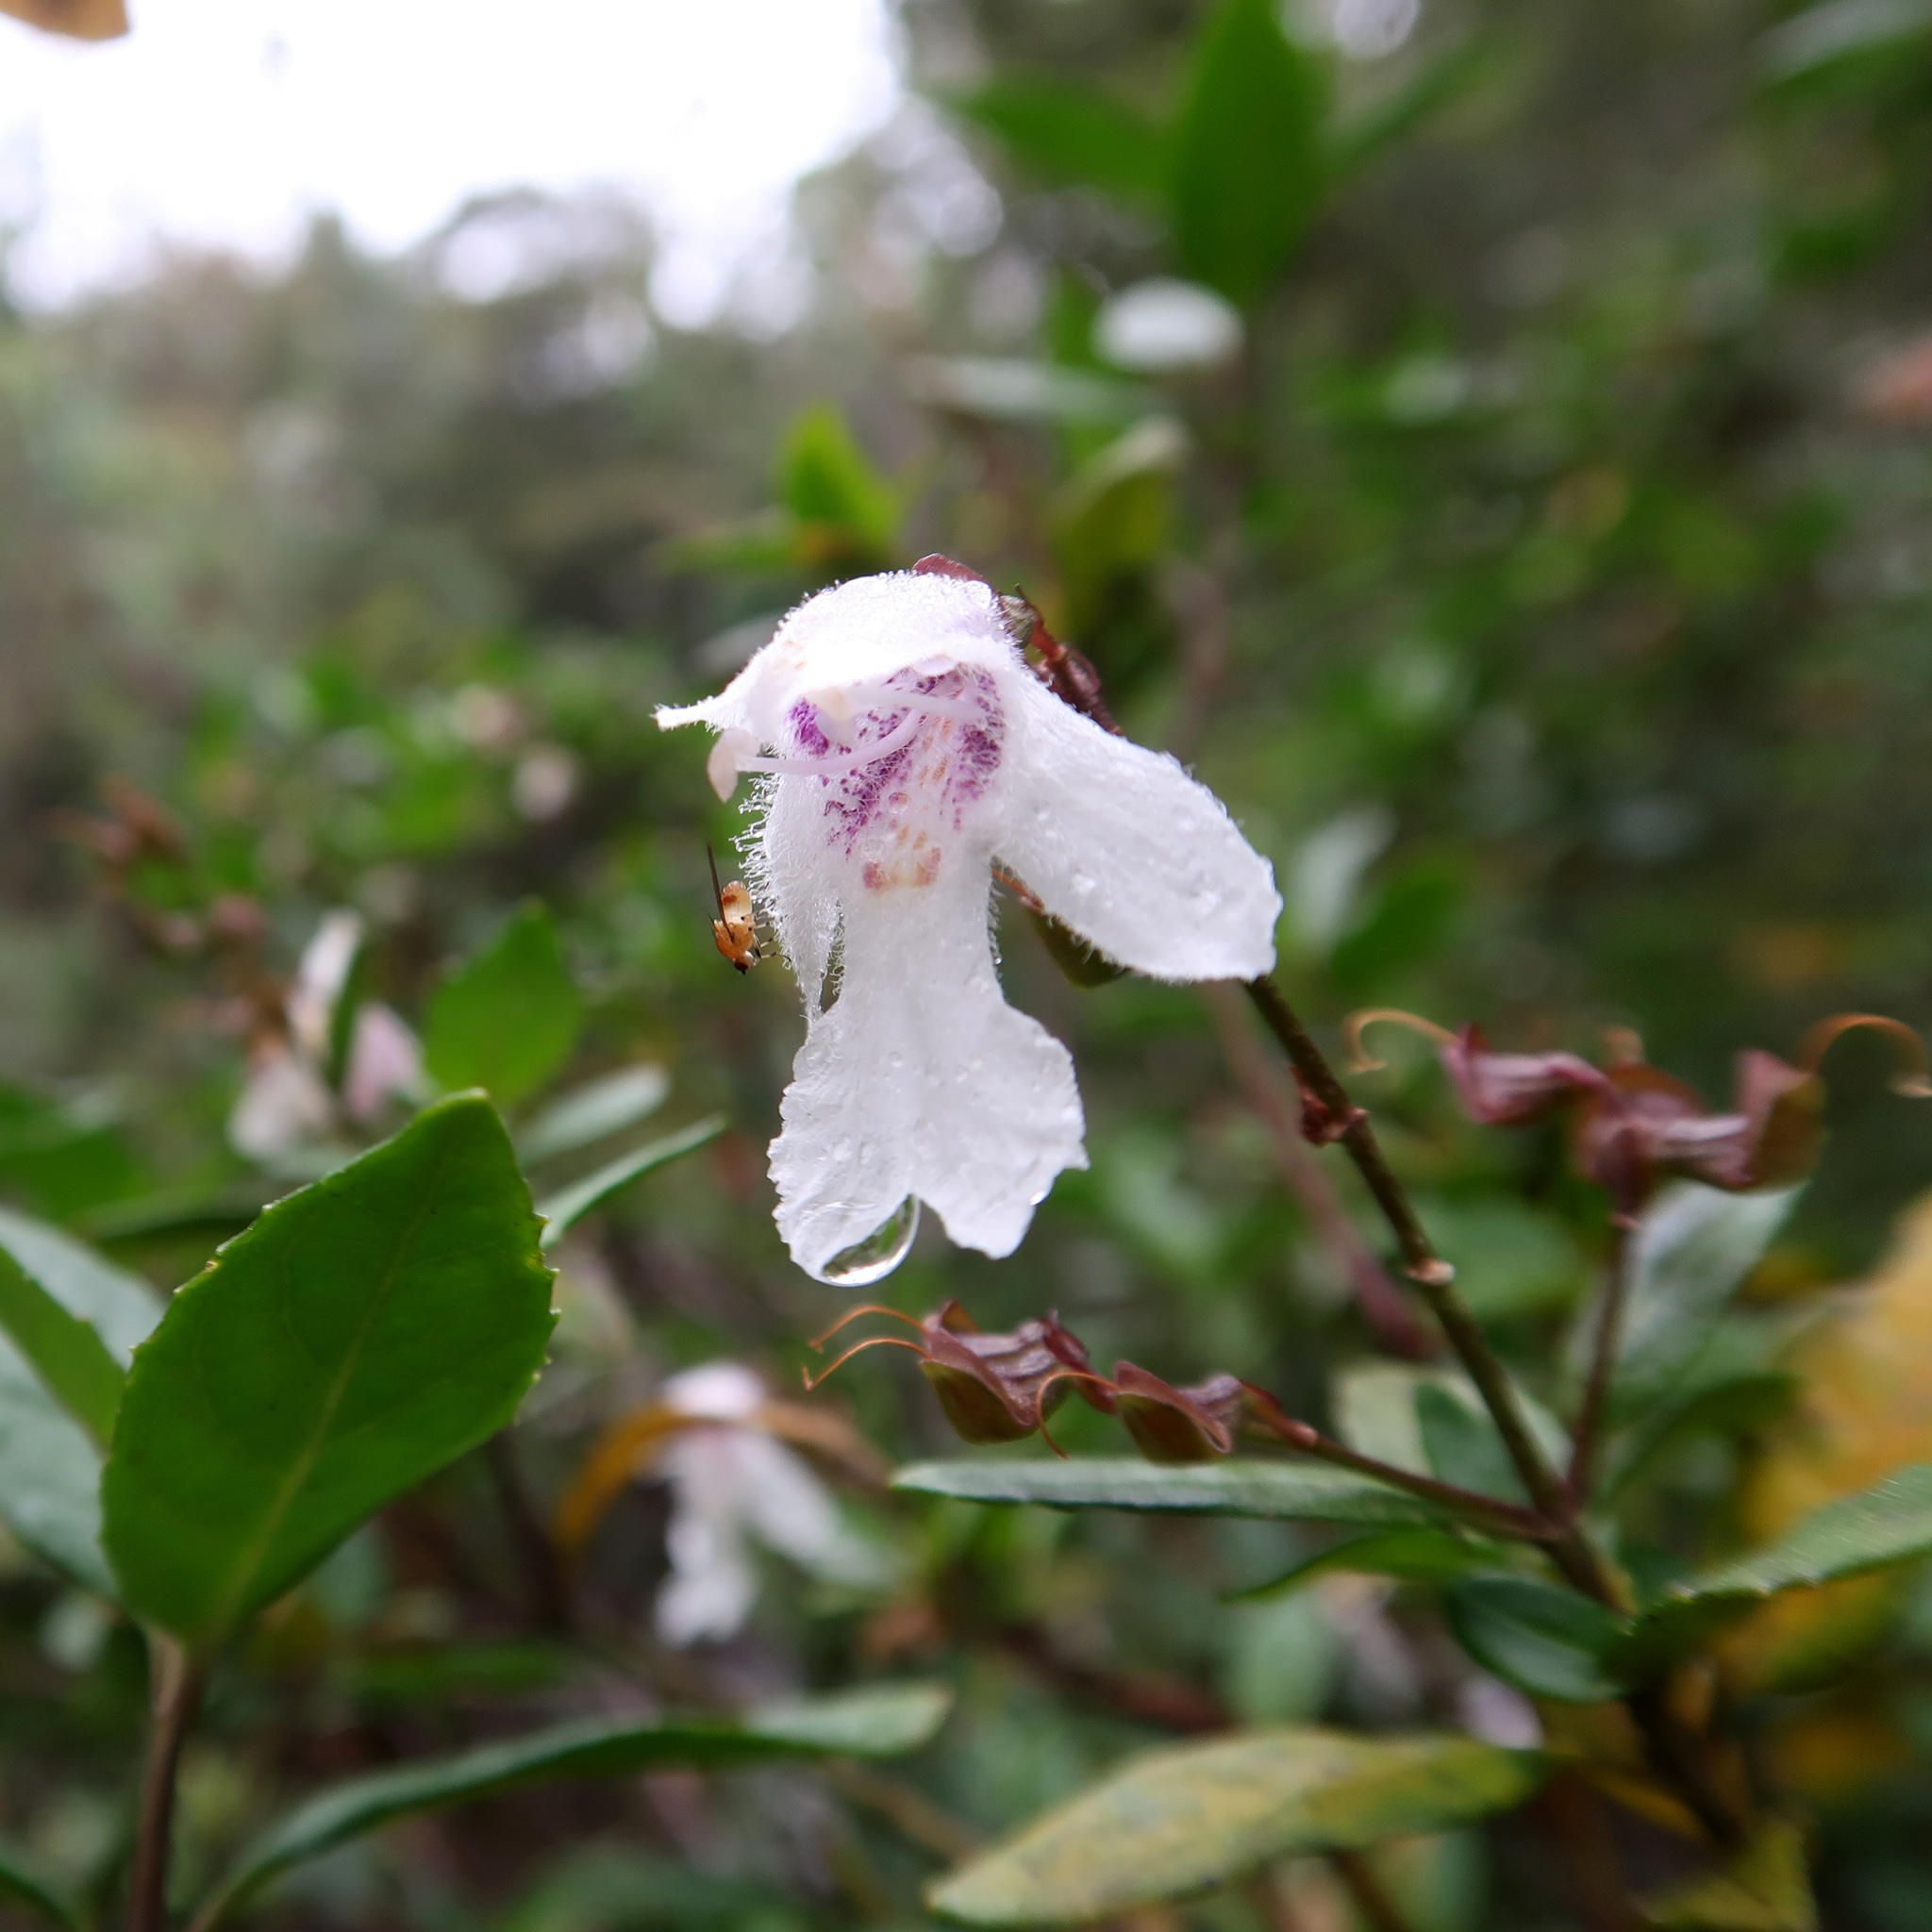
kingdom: Plantae
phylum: Tracheophyta
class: Magnoliopsida
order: Lamiales
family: Lamiaceae
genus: Prostanthera
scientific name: Prostanthera lasianthos
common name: Mountain-lilac
